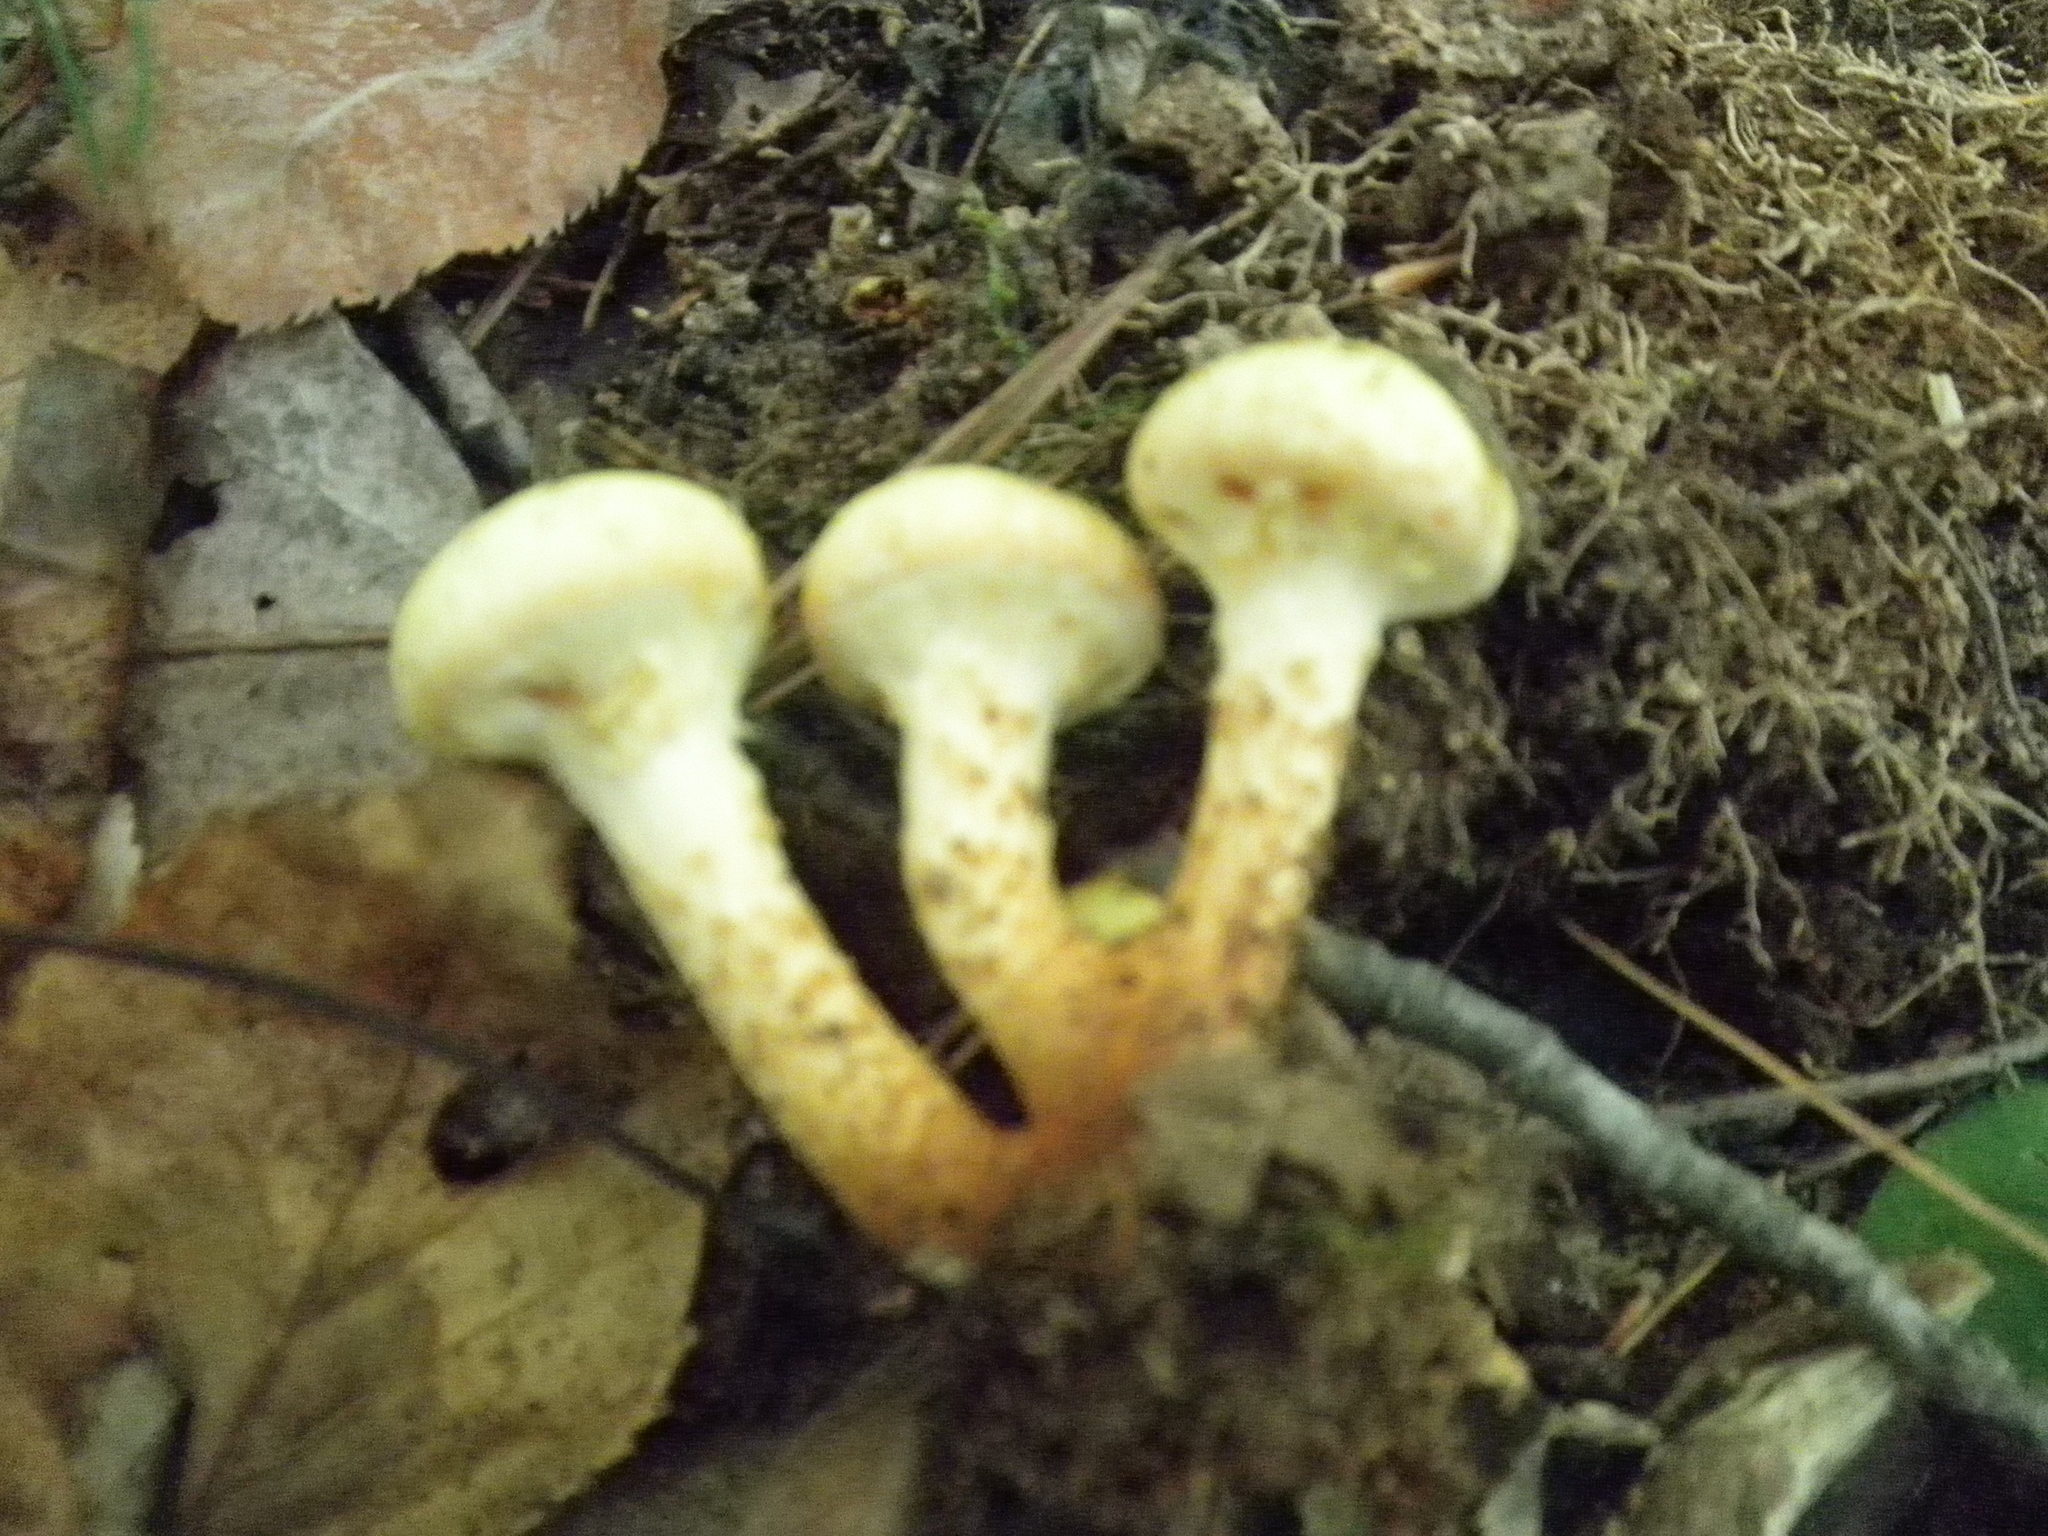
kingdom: Fungi
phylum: Basidiomycota
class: Agaricomycetes
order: Agaricales
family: Hymenogastraceae
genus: Flammula
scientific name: Flammula alnicola
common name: Alder scalycap
